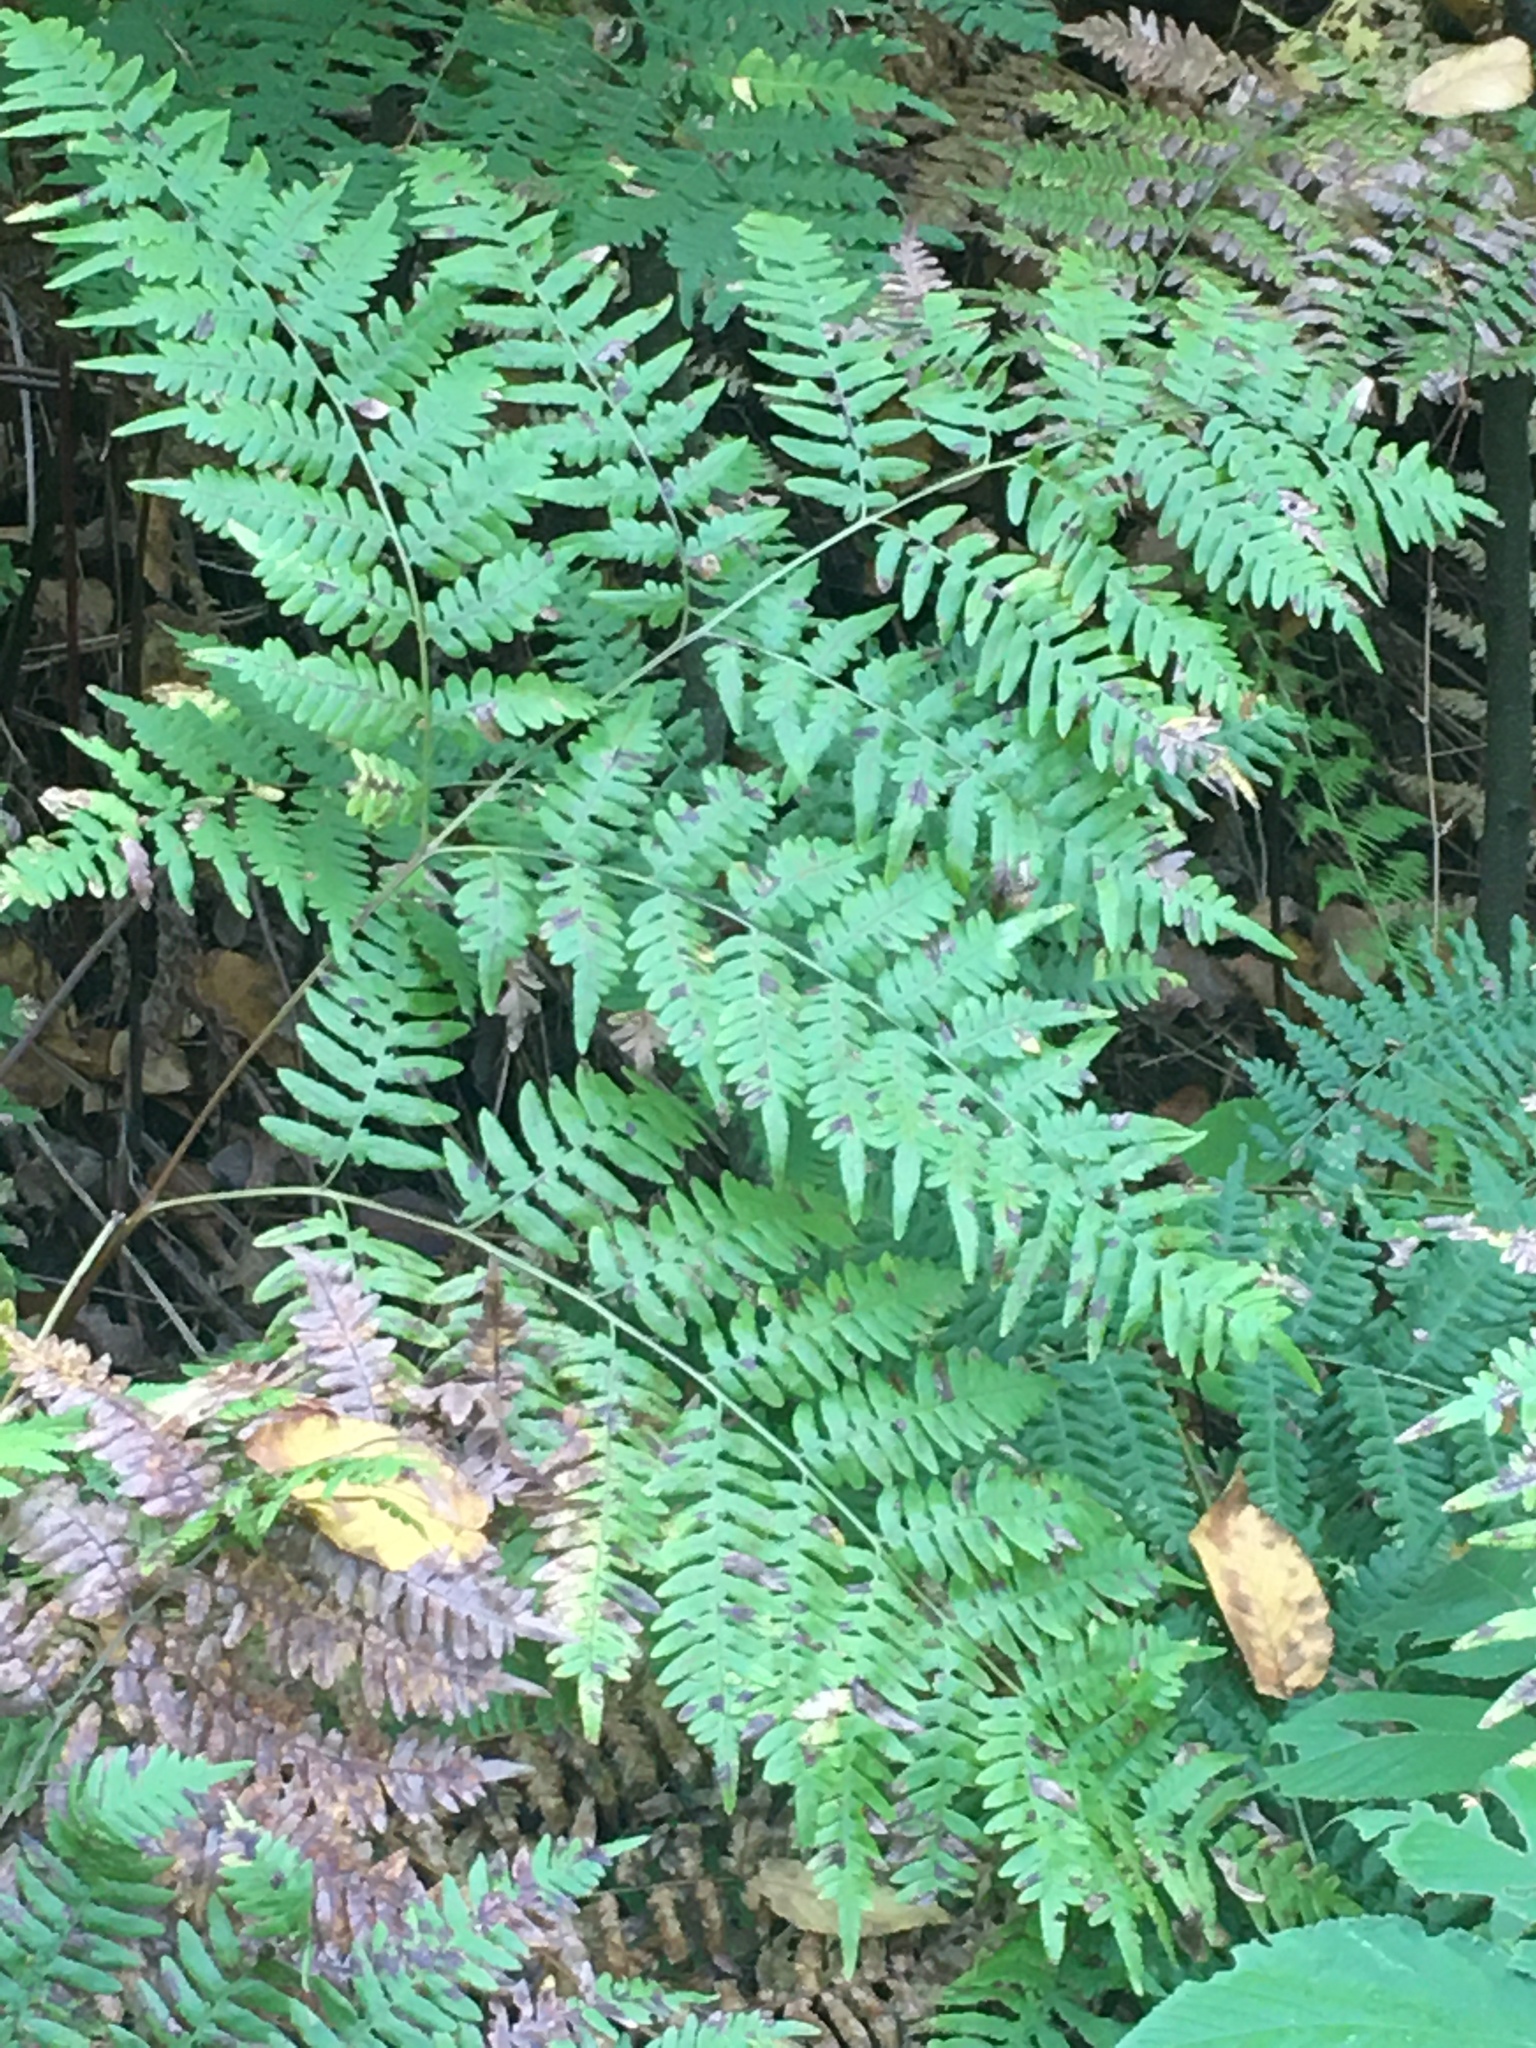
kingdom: Plantae
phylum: Tracheophyta
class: Polypodiopsida
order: Polypodiales
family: Dennstaedtiaceae
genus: Pteridium
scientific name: Pteridium aquilinum
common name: Bracken
